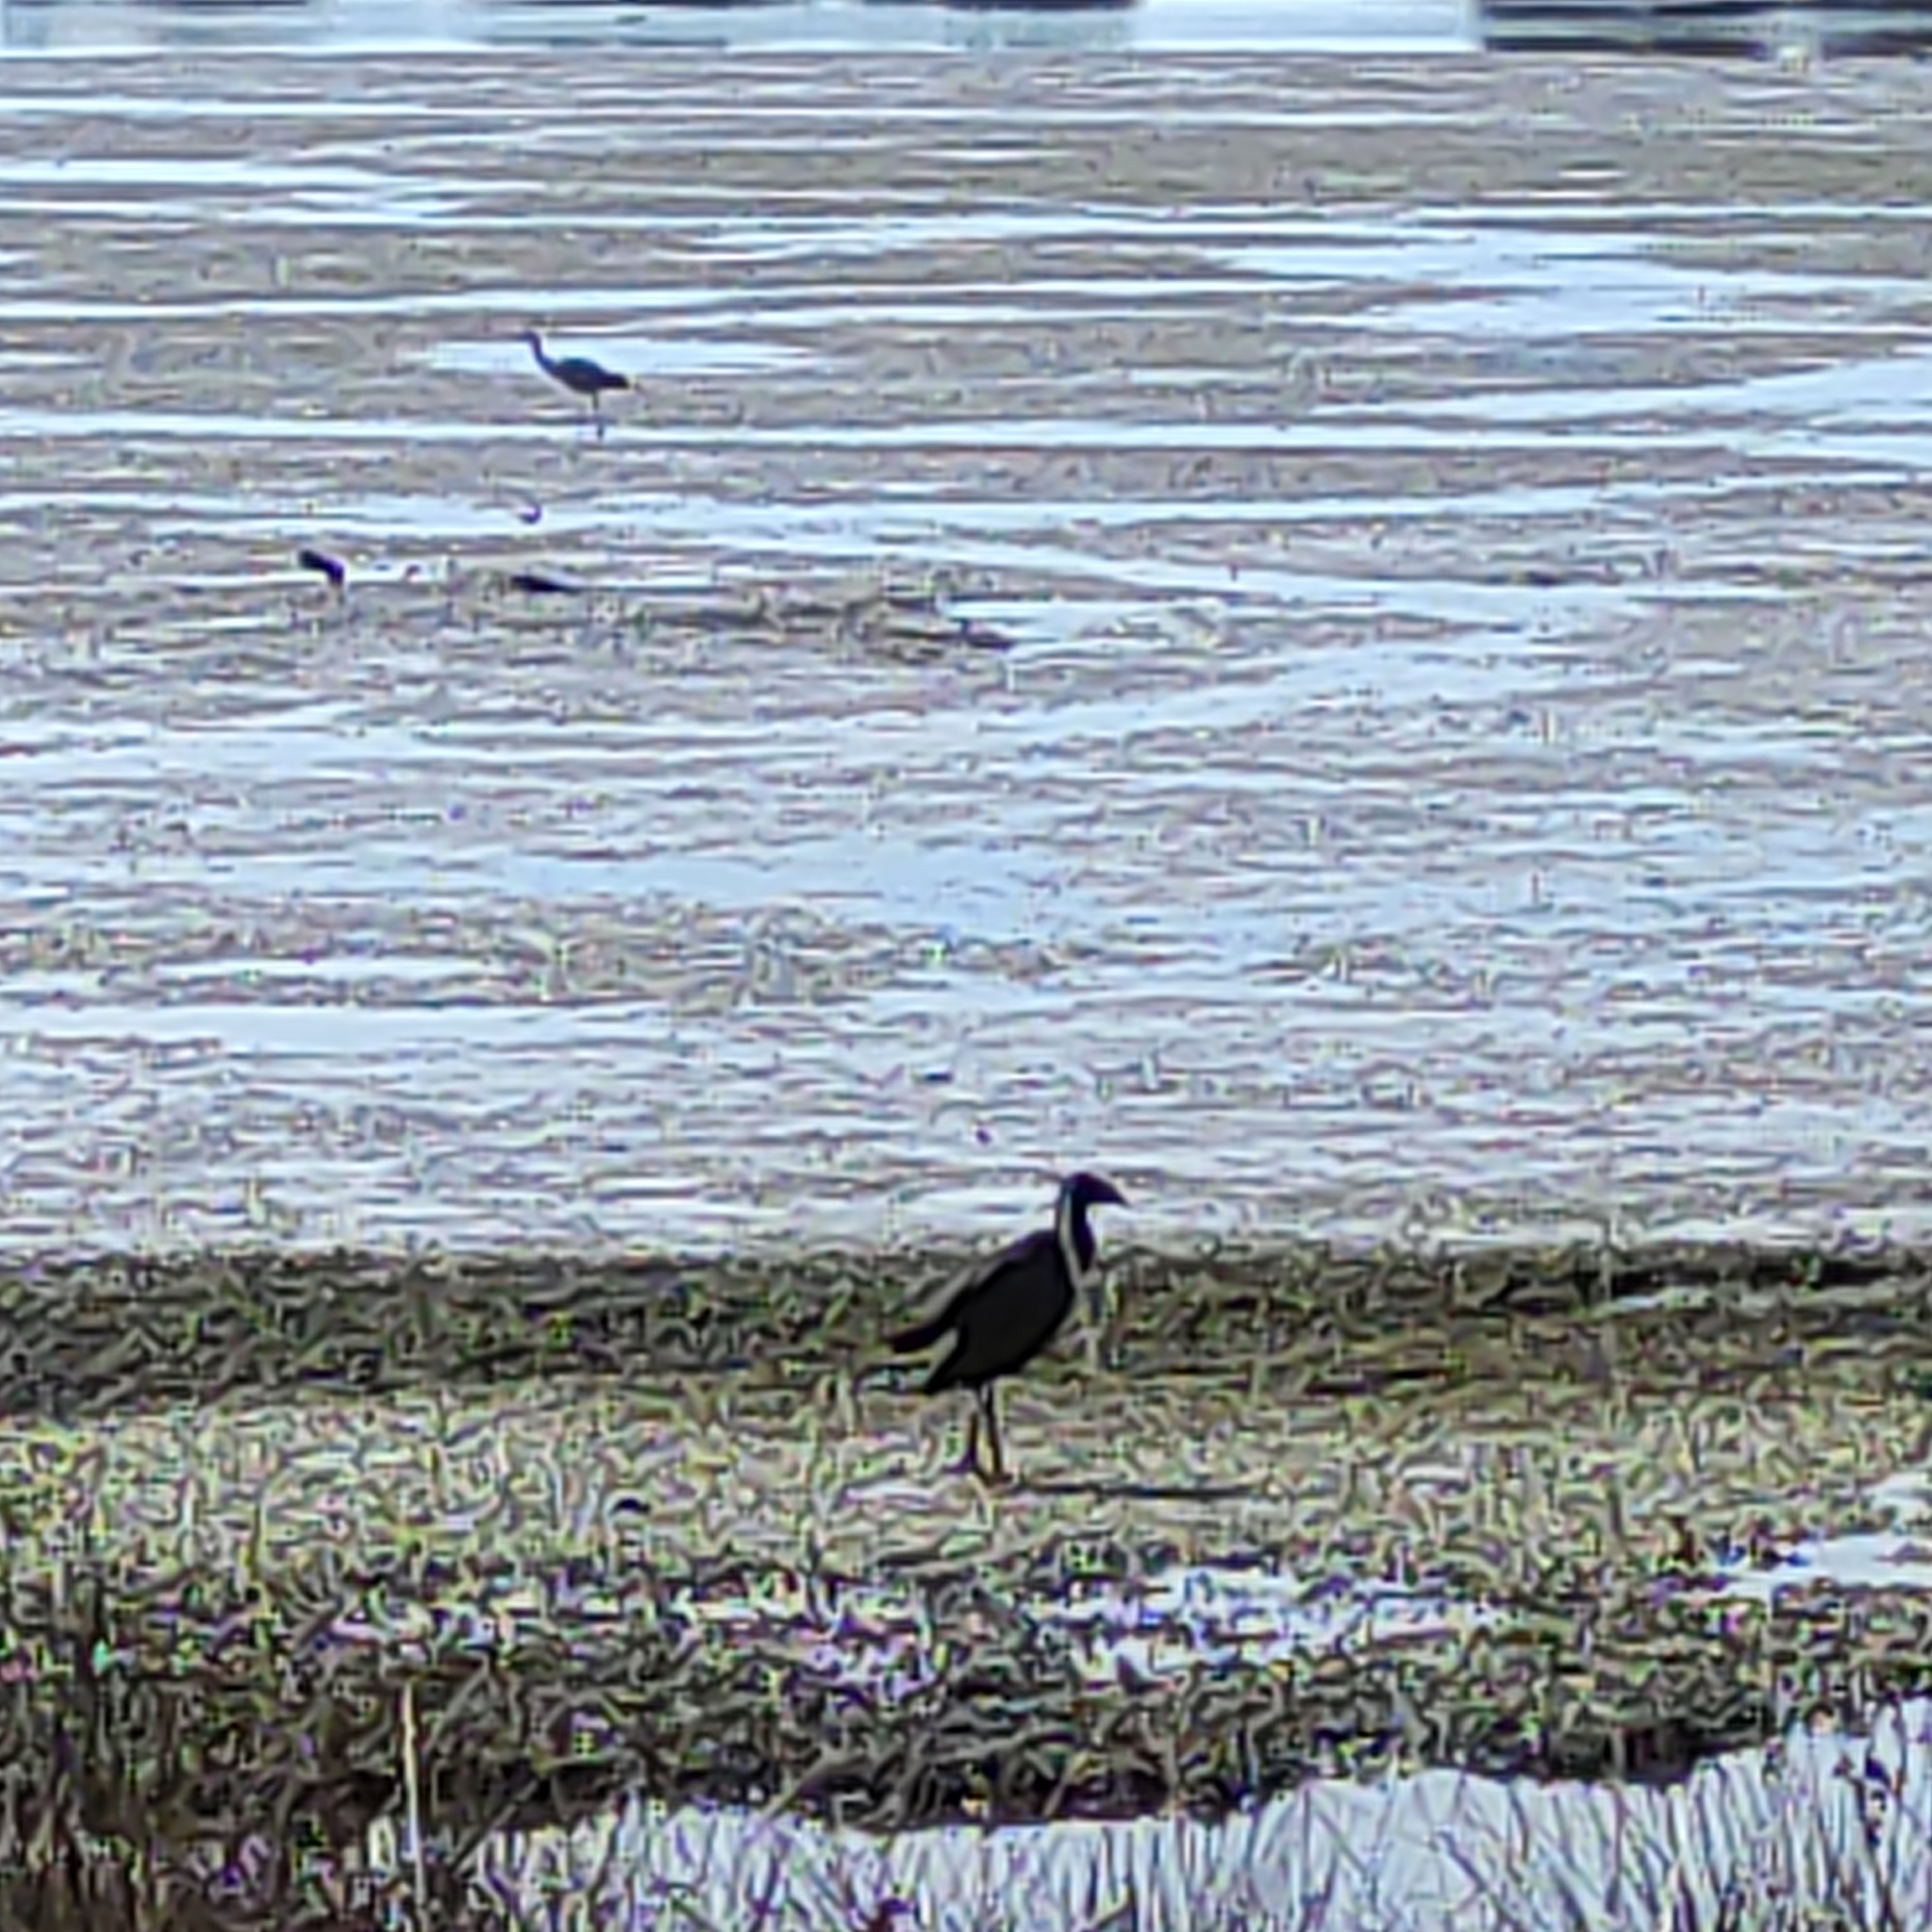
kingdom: Animalia
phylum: Chordata
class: Aves
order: Gruiformes
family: Rallidae
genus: Porphyrio
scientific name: Porphyrio melanotus
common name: Australasian swamphen
